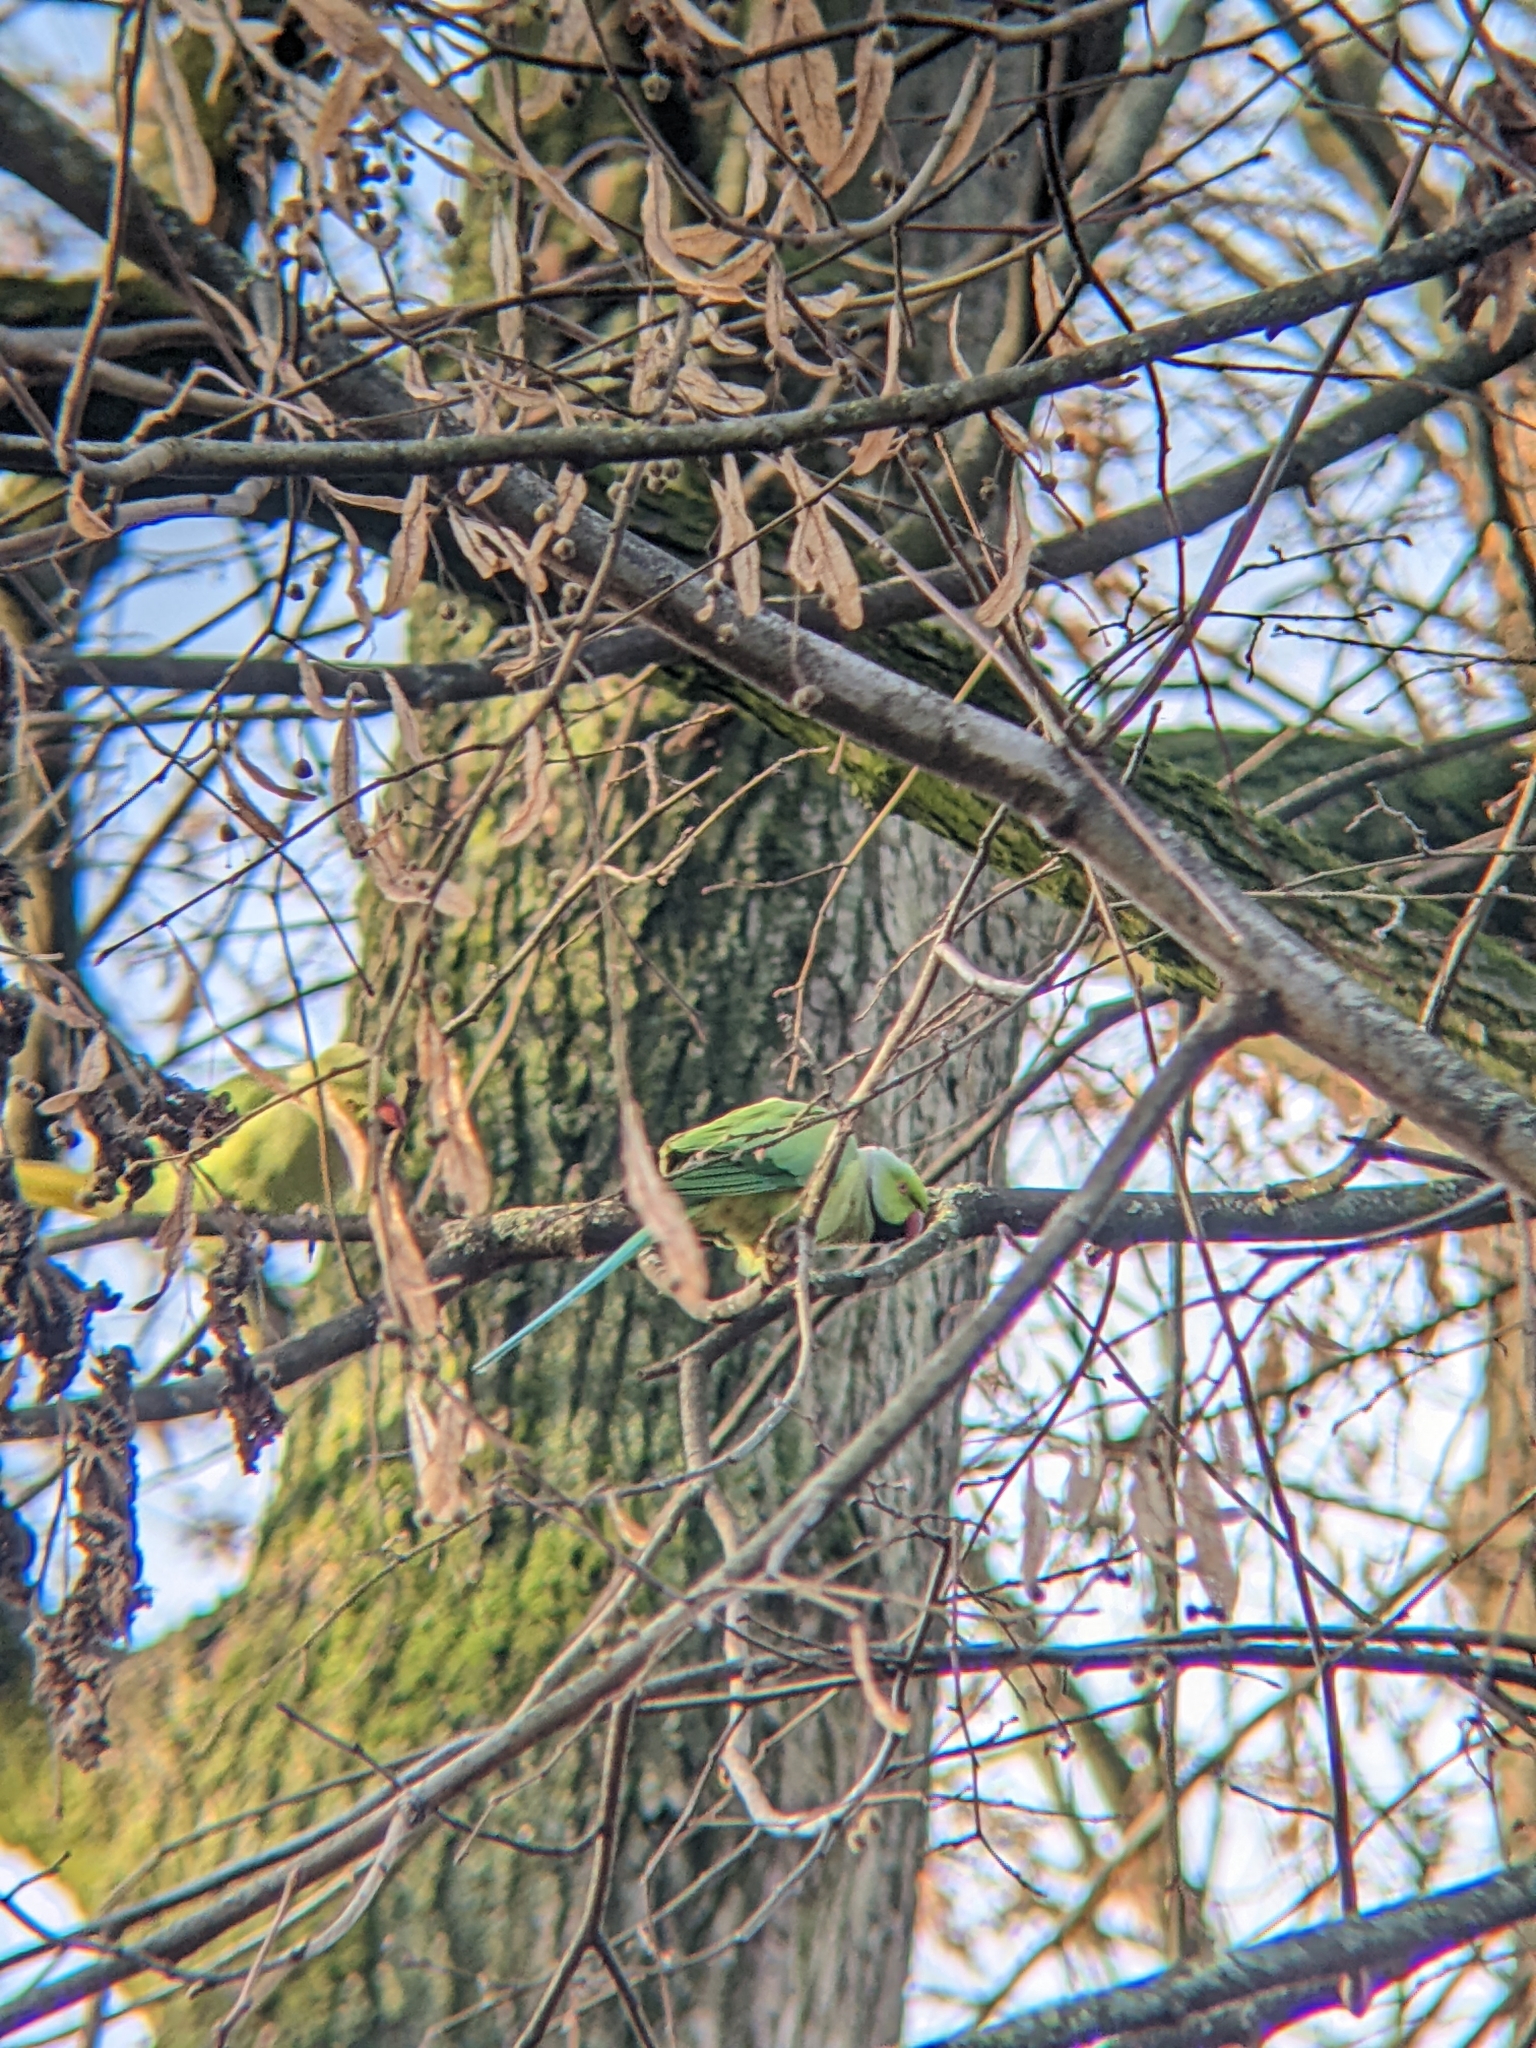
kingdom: Animalia
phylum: Chordata
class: Aves
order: Psittaciformes
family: Psittacidae
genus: Psittacula
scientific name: Psittacula krameri
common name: Rose-ringed parakeet
